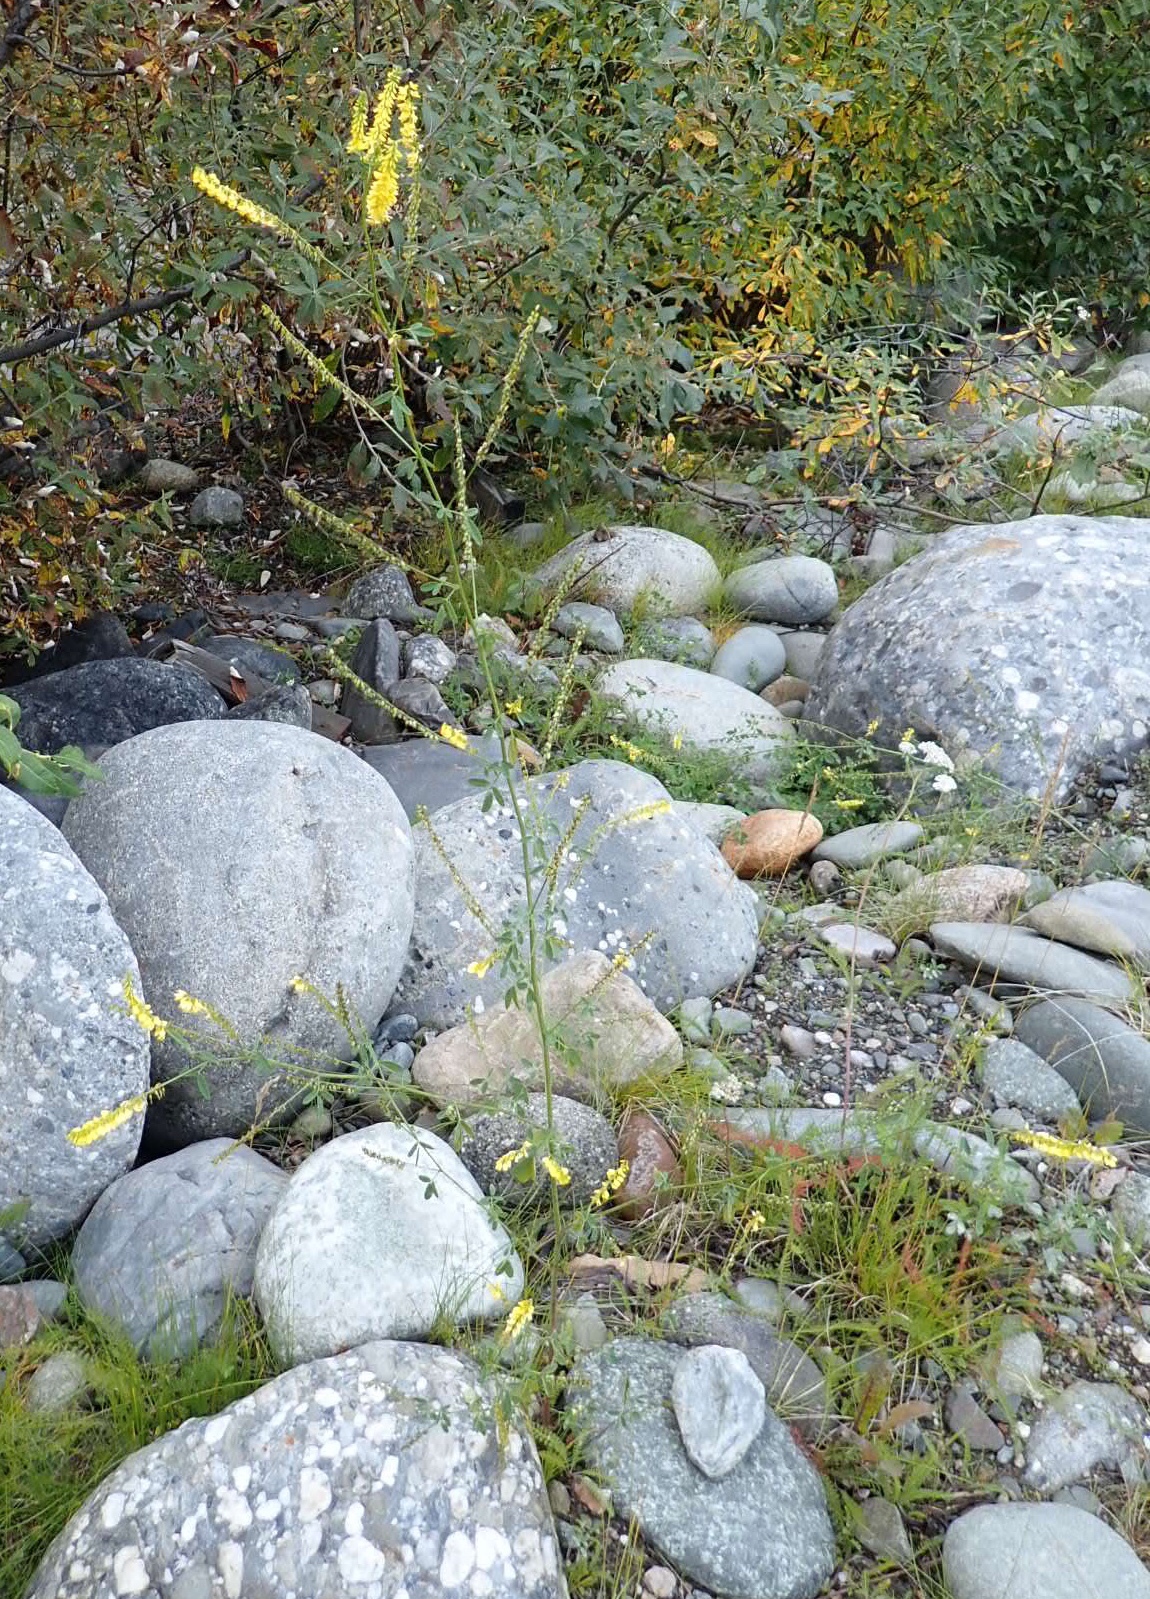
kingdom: Plantae
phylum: Tracheophyta
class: Magnoliopsida
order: Fabales
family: Fabaceae
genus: Melilotus
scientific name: Melilotus officinalis
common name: Sweetclover
